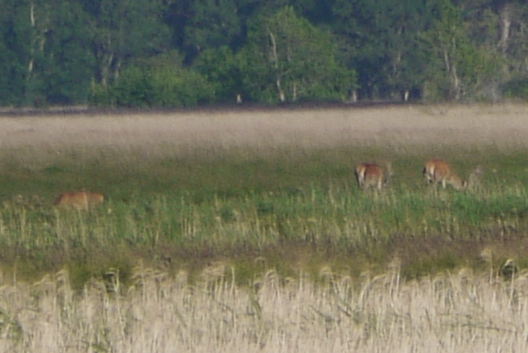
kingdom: Animalia
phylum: Chordata
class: Mammalia
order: Artiodactyla
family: Cervidae
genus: Cervus
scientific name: Cervus elaphus
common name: Red deer
